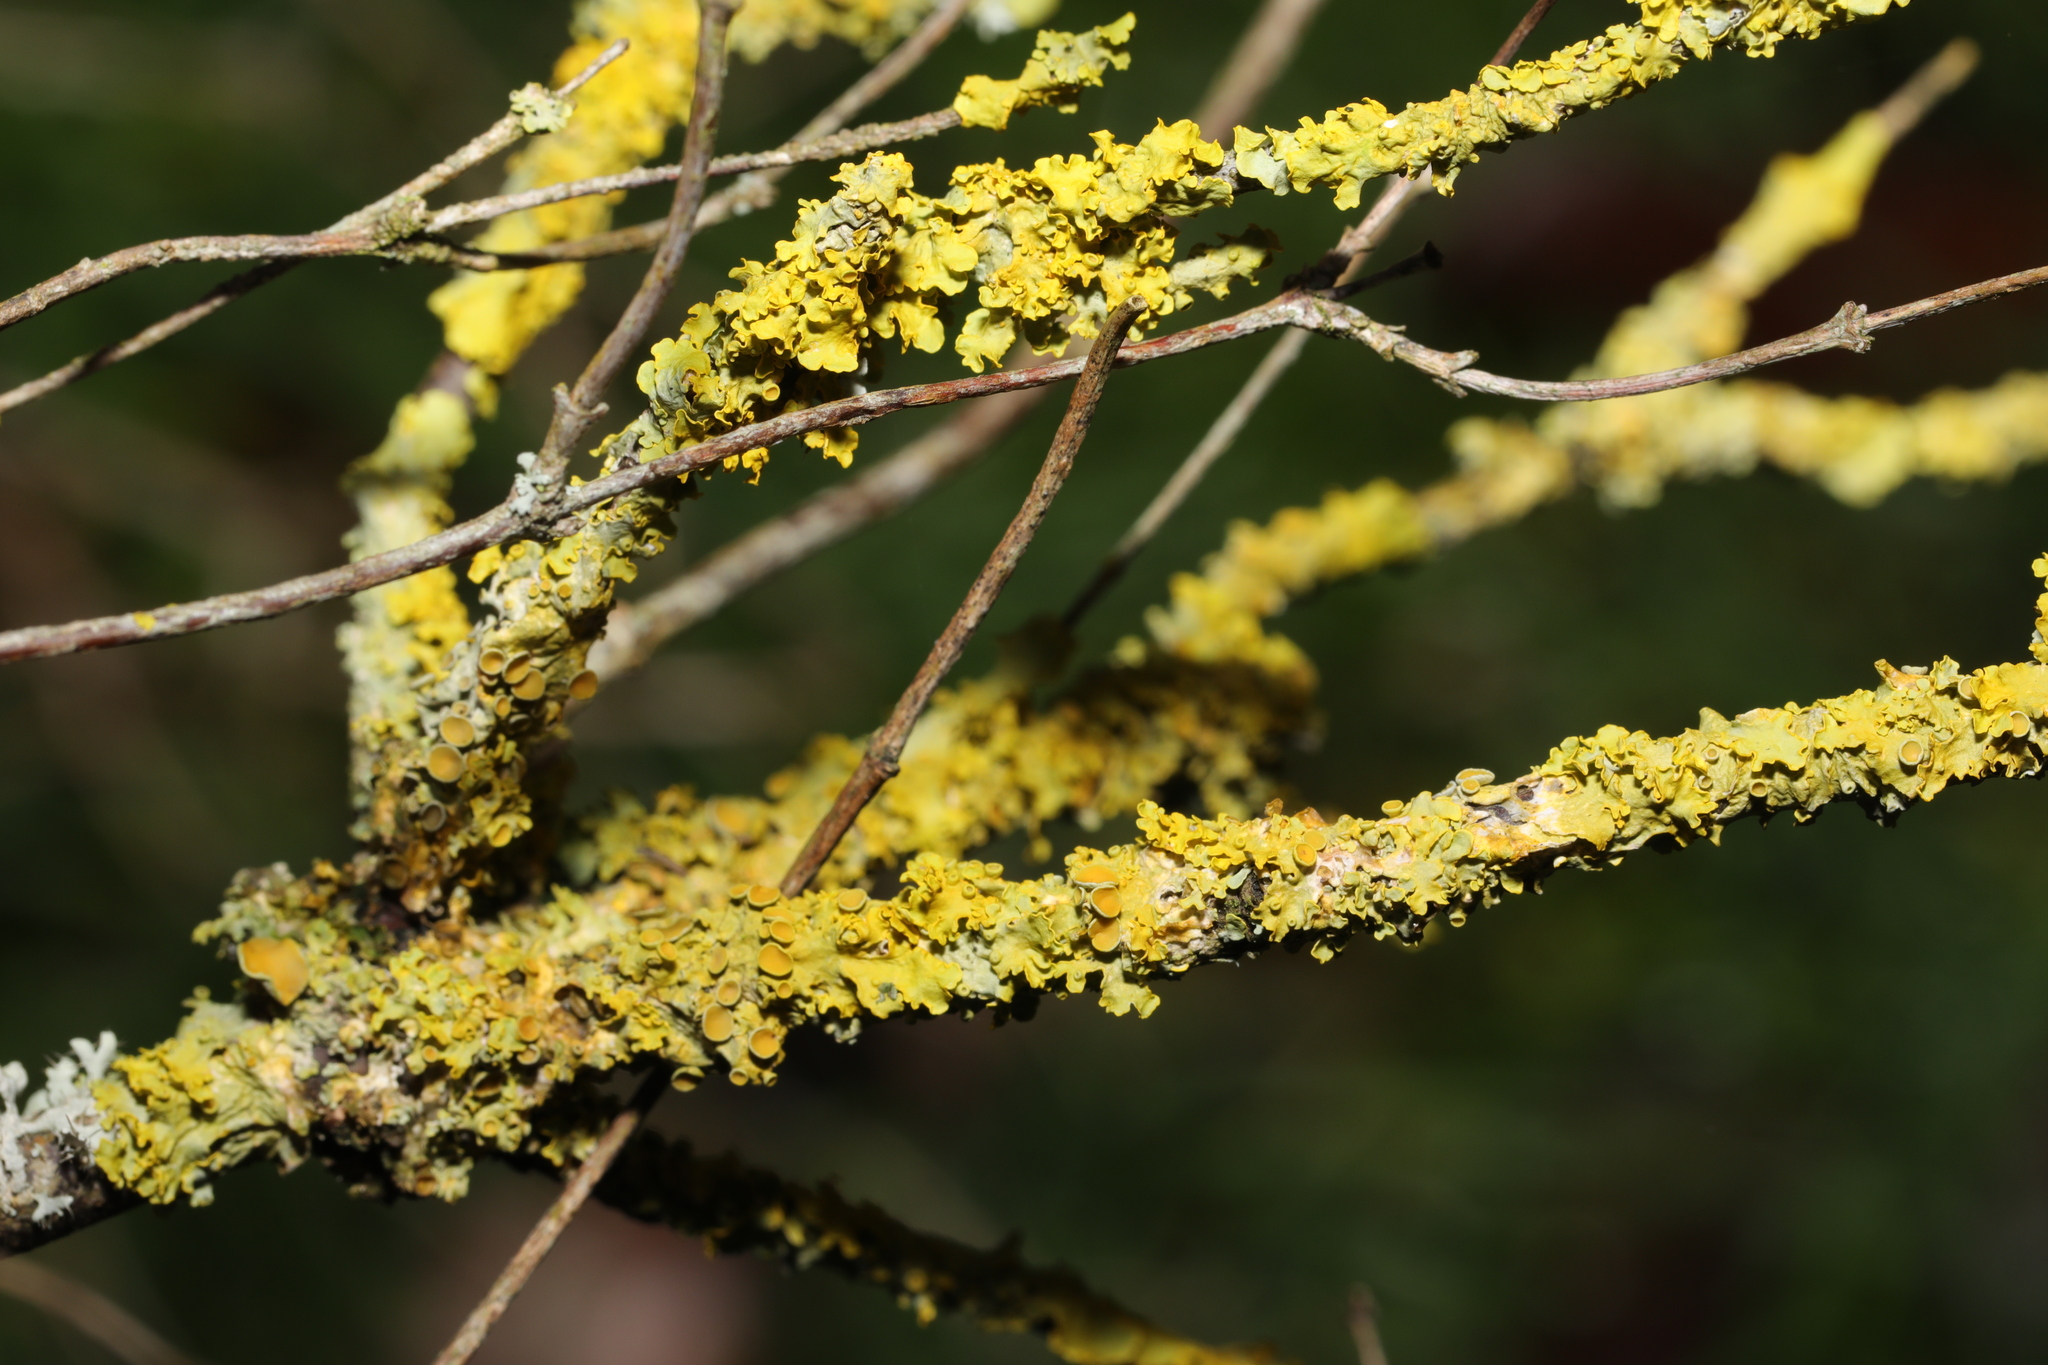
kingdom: Fungi
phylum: Ascomycota
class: Lecanoromycetes
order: Teloschistales
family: Teloschistaceae
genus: Xanthoria
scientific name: Xanthoria parietina
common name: Common orange lichen
